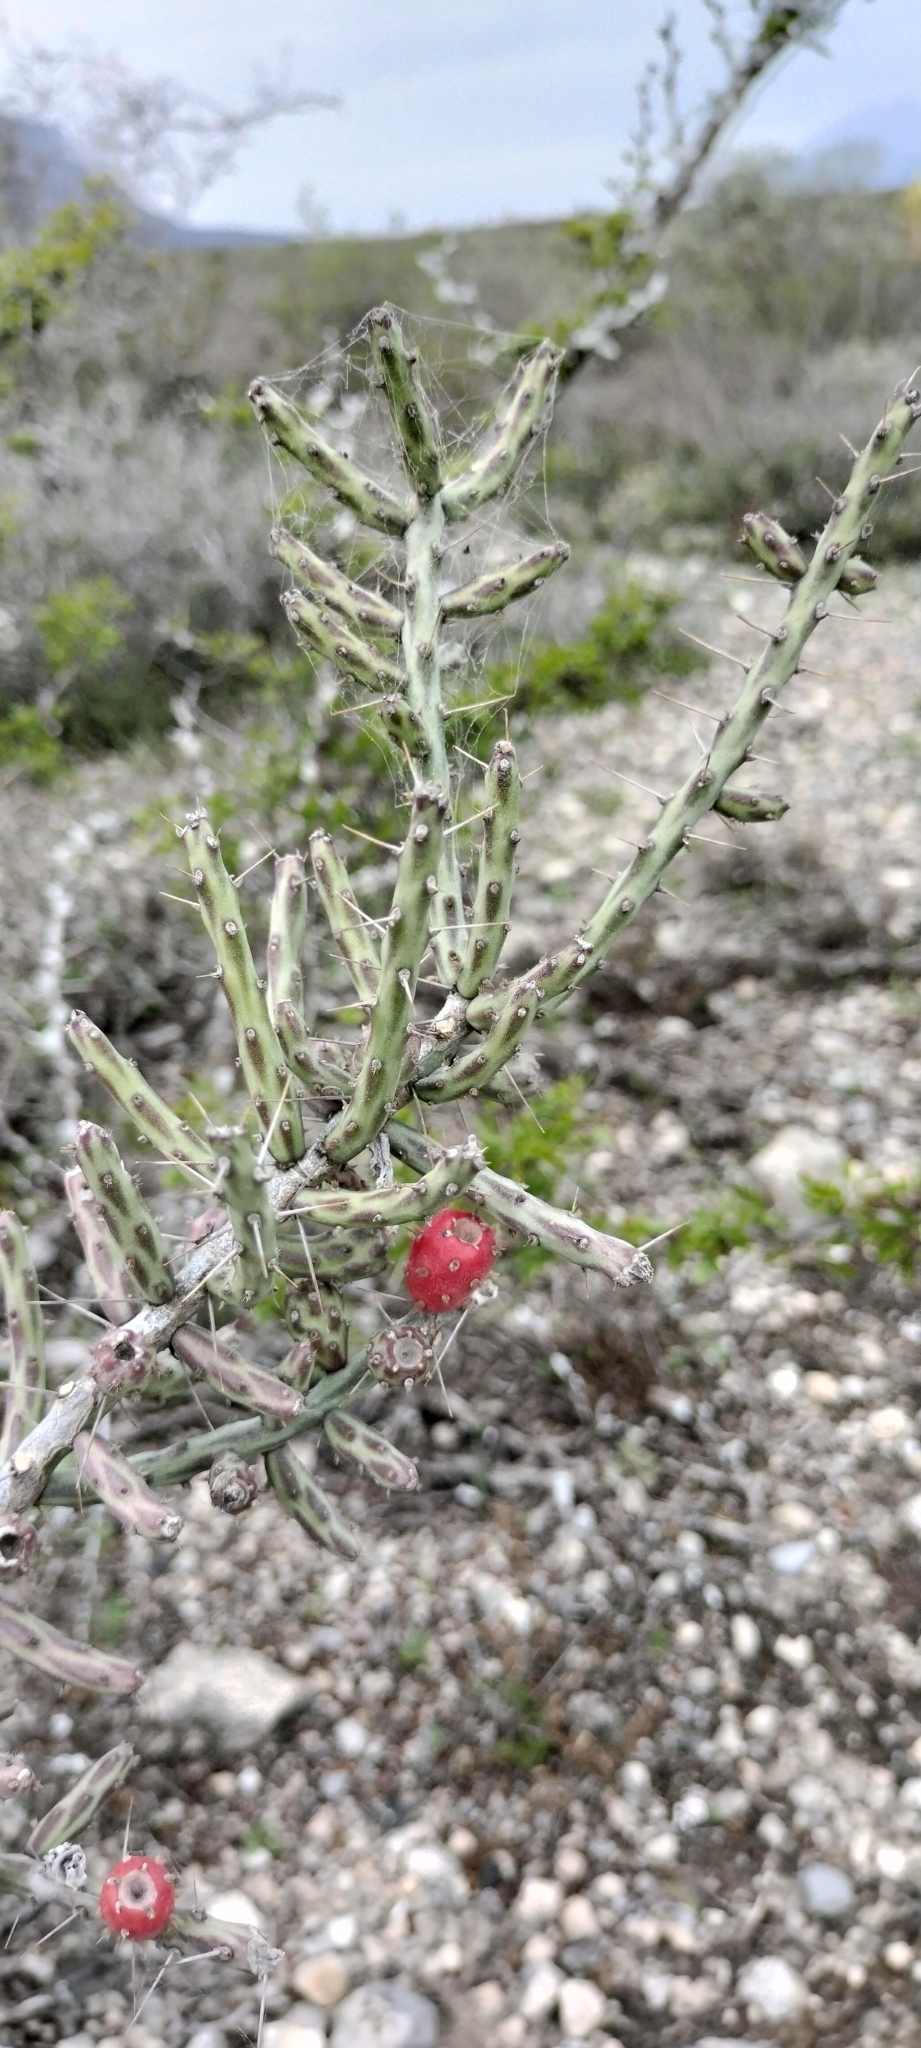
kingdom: Plantae
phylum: Tracheophyta
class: Magnoliopsida
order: Caryophyllales
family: Cactaceae
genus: Cylindropuntia
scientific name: Cylindropuntia leptocaulis
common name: Christmas cactus
